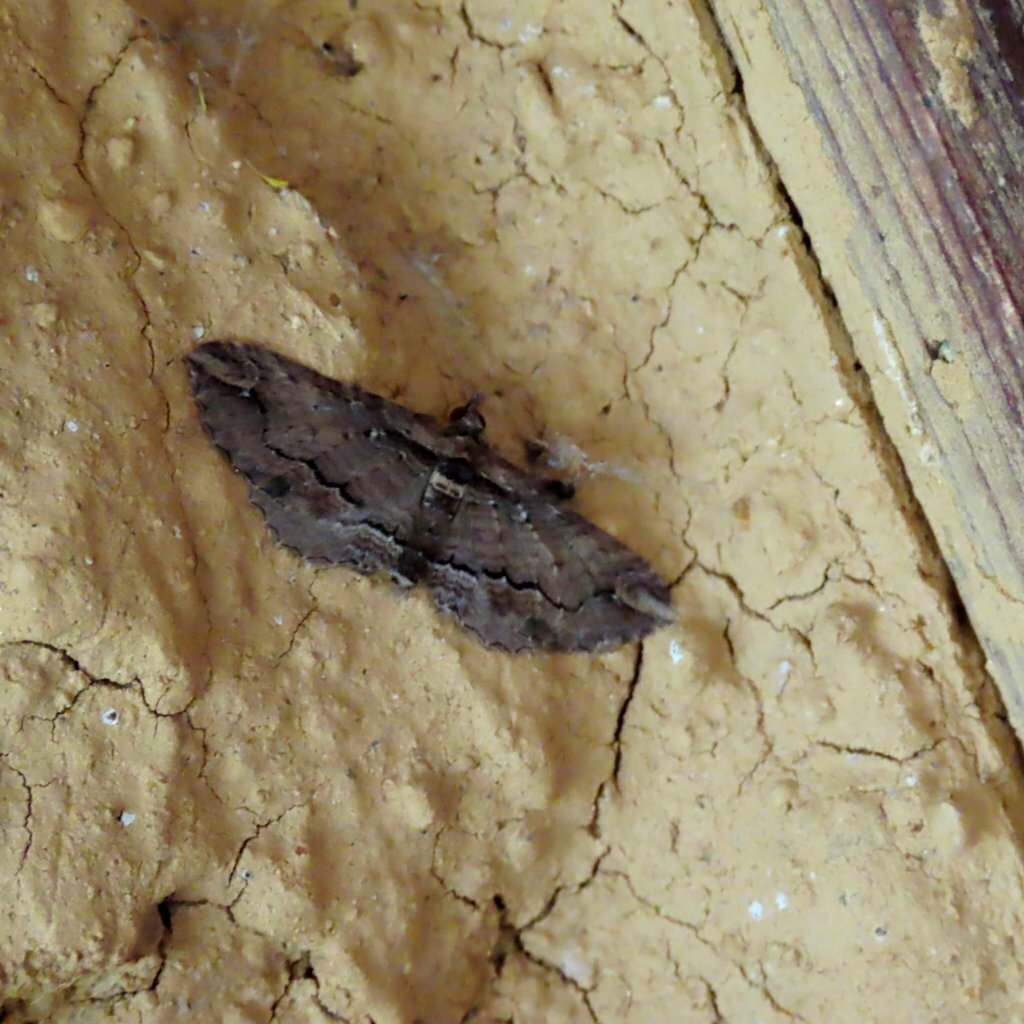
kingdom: Animalia
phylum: Arthropoda
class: Insecta
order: Lepidoptera
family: Geometridae
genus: Chrysolarentia
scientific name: Chrysolarentia leucophanes
